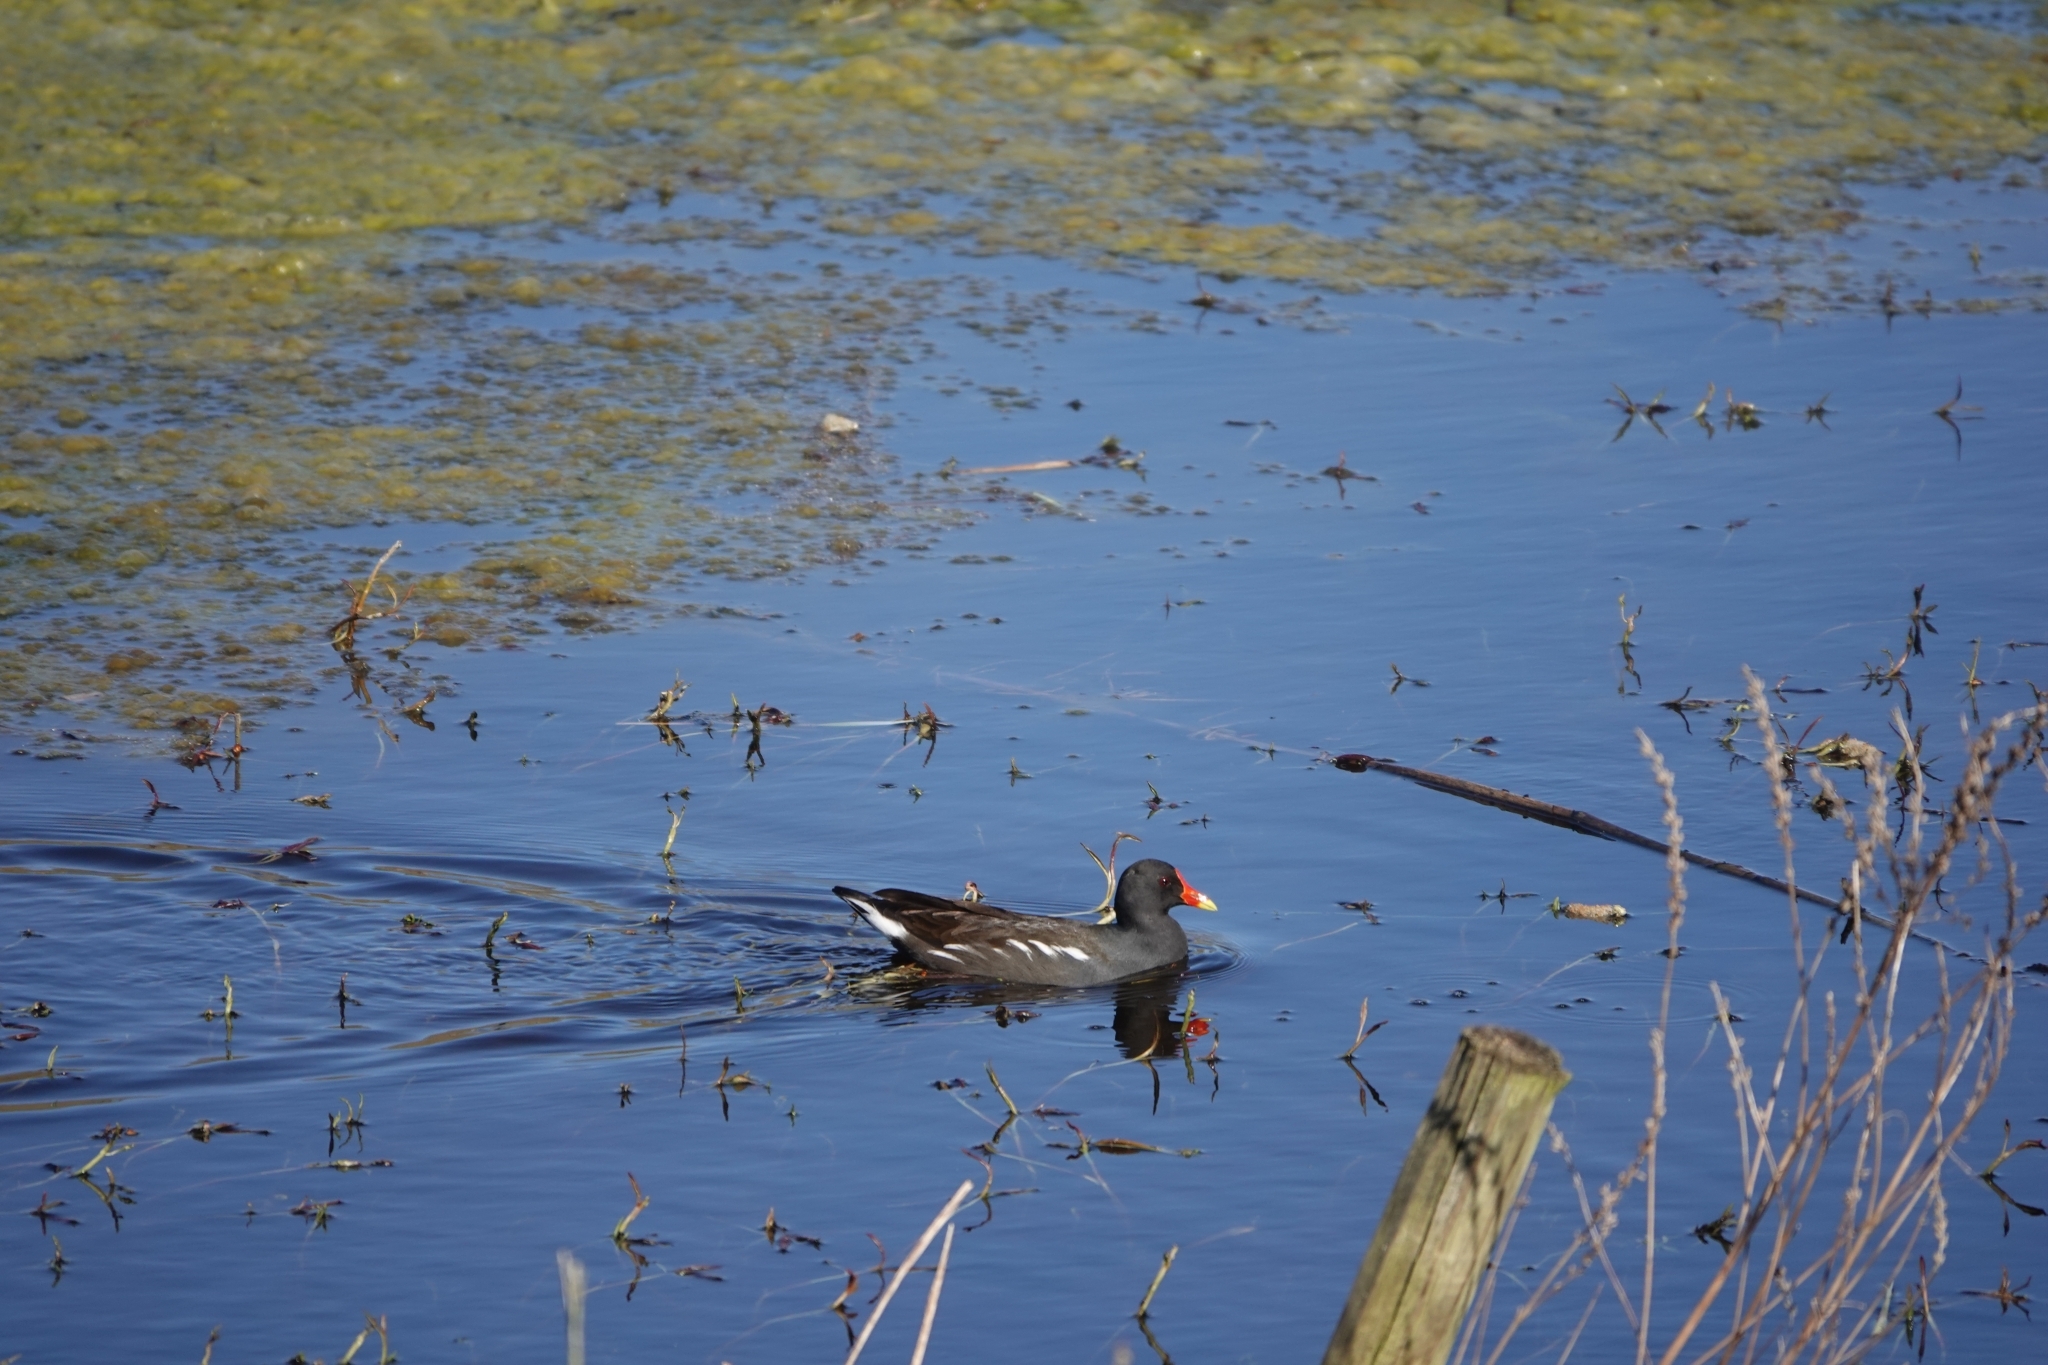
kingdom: Animalia
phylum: Chordata
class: Aves
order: Gruiformes
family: Rallidae
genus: Gallinula
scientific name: Gallinula chloropus
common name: Common moorhen
